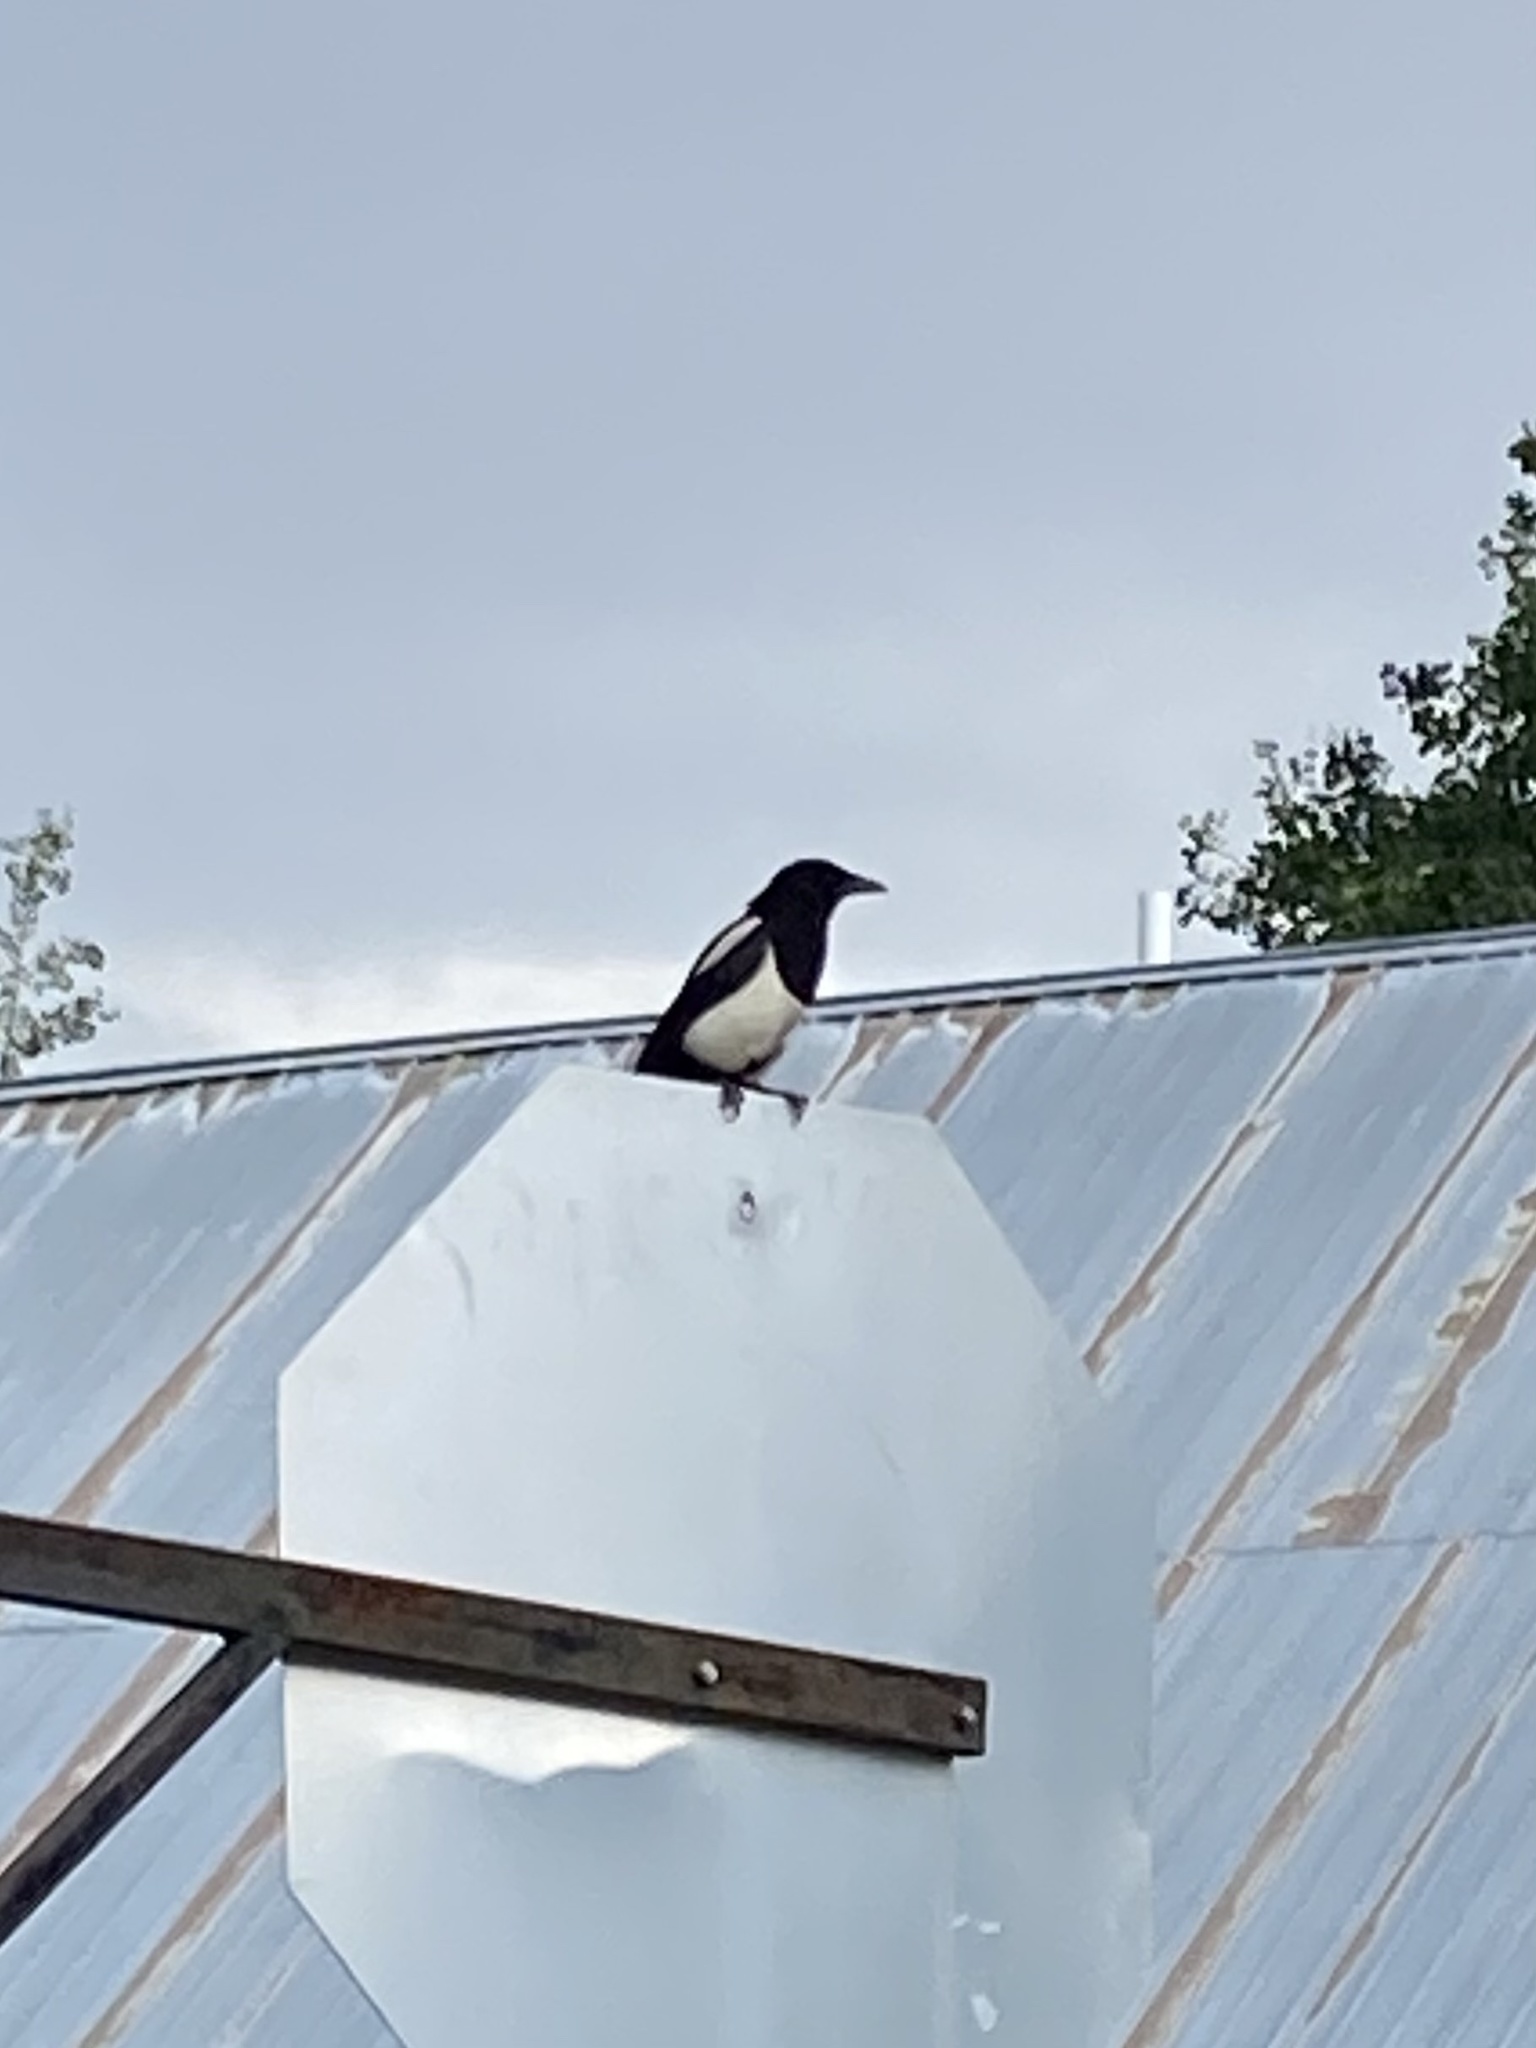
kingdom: Animalia
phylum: Chordata
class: Aves
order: Passeriformes
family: Corvidae
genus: Pica
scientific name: Pica hudsonia
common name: Black-billed magpie
